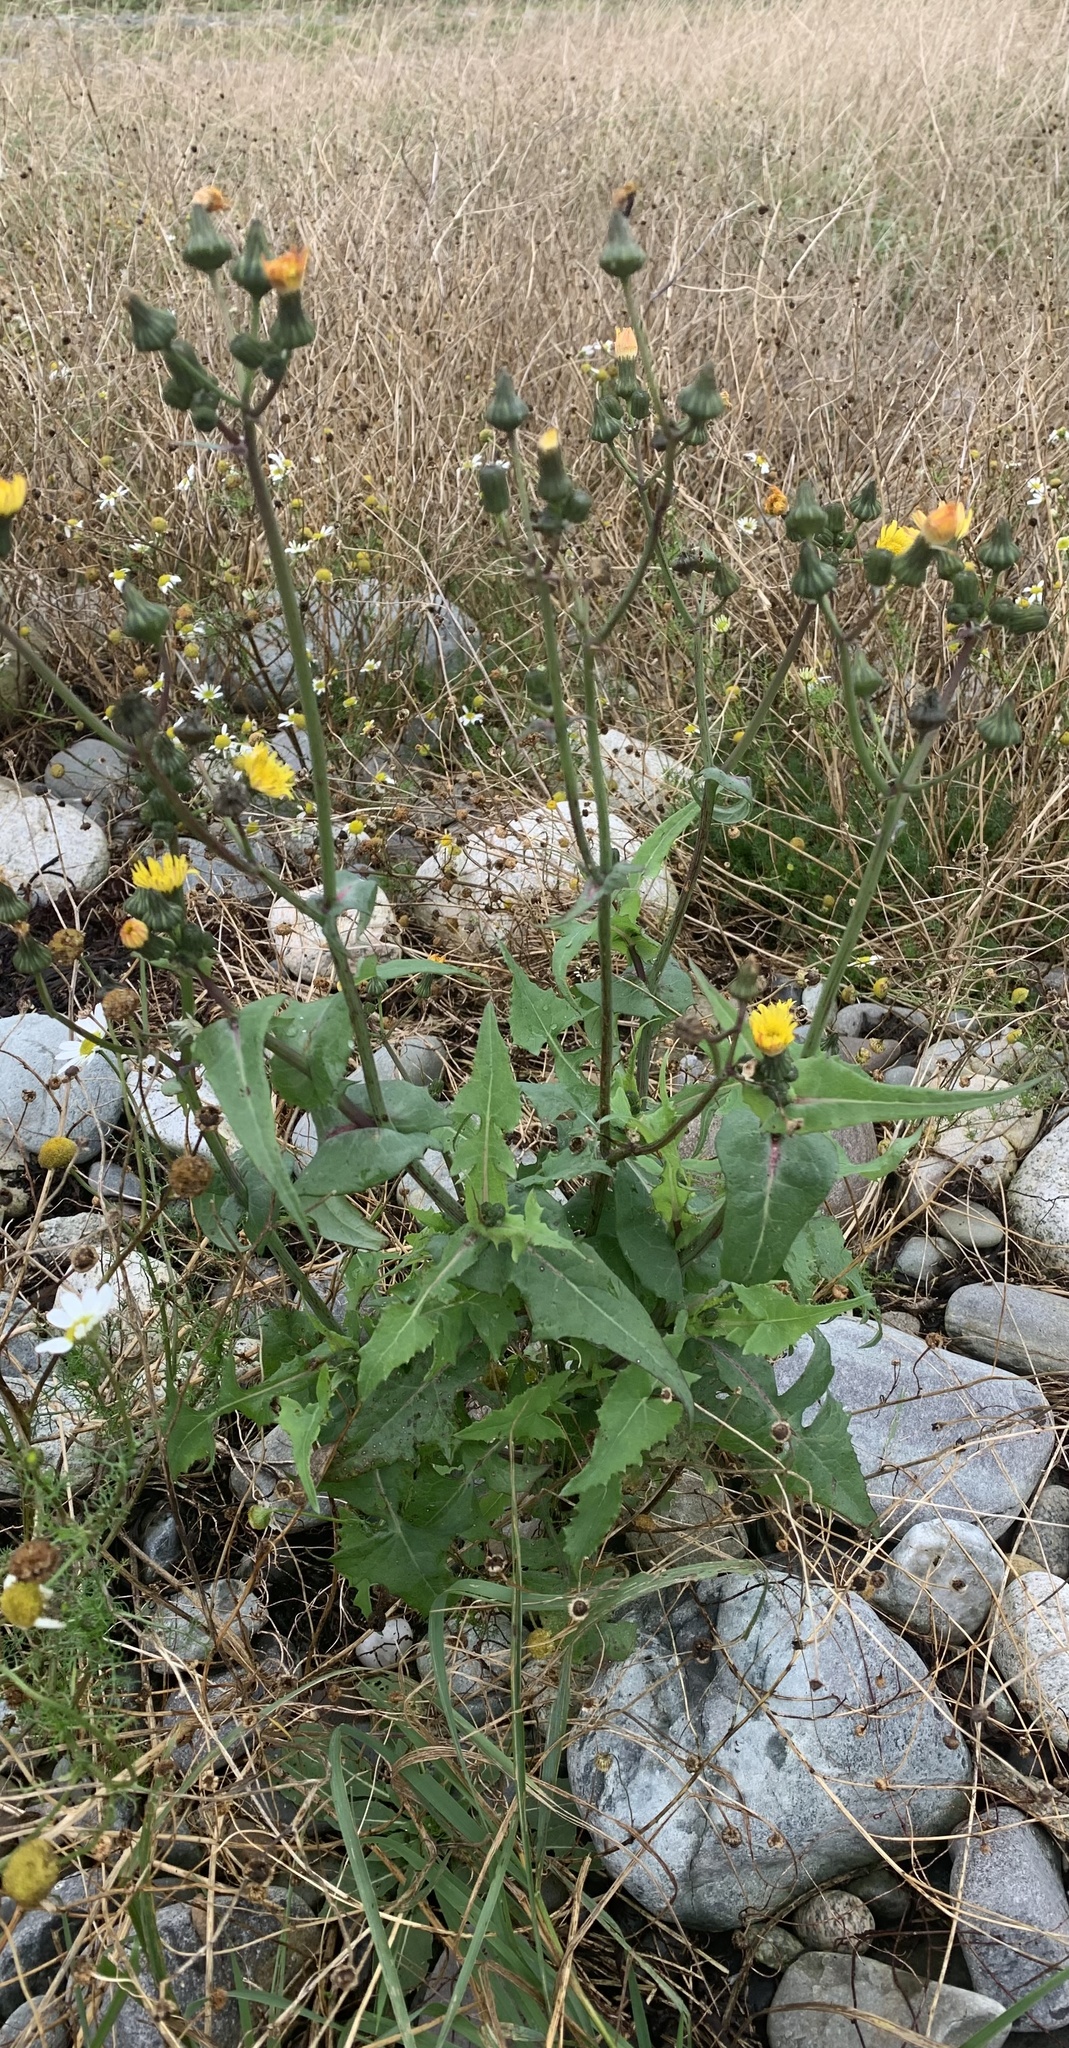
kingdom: Plantae
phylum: Tracheophyta
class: Magnoliopsida
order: Asterales
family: Asteraceae
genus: Sonchus
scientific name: Sonchus oleraceus
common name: Common sowthistle
